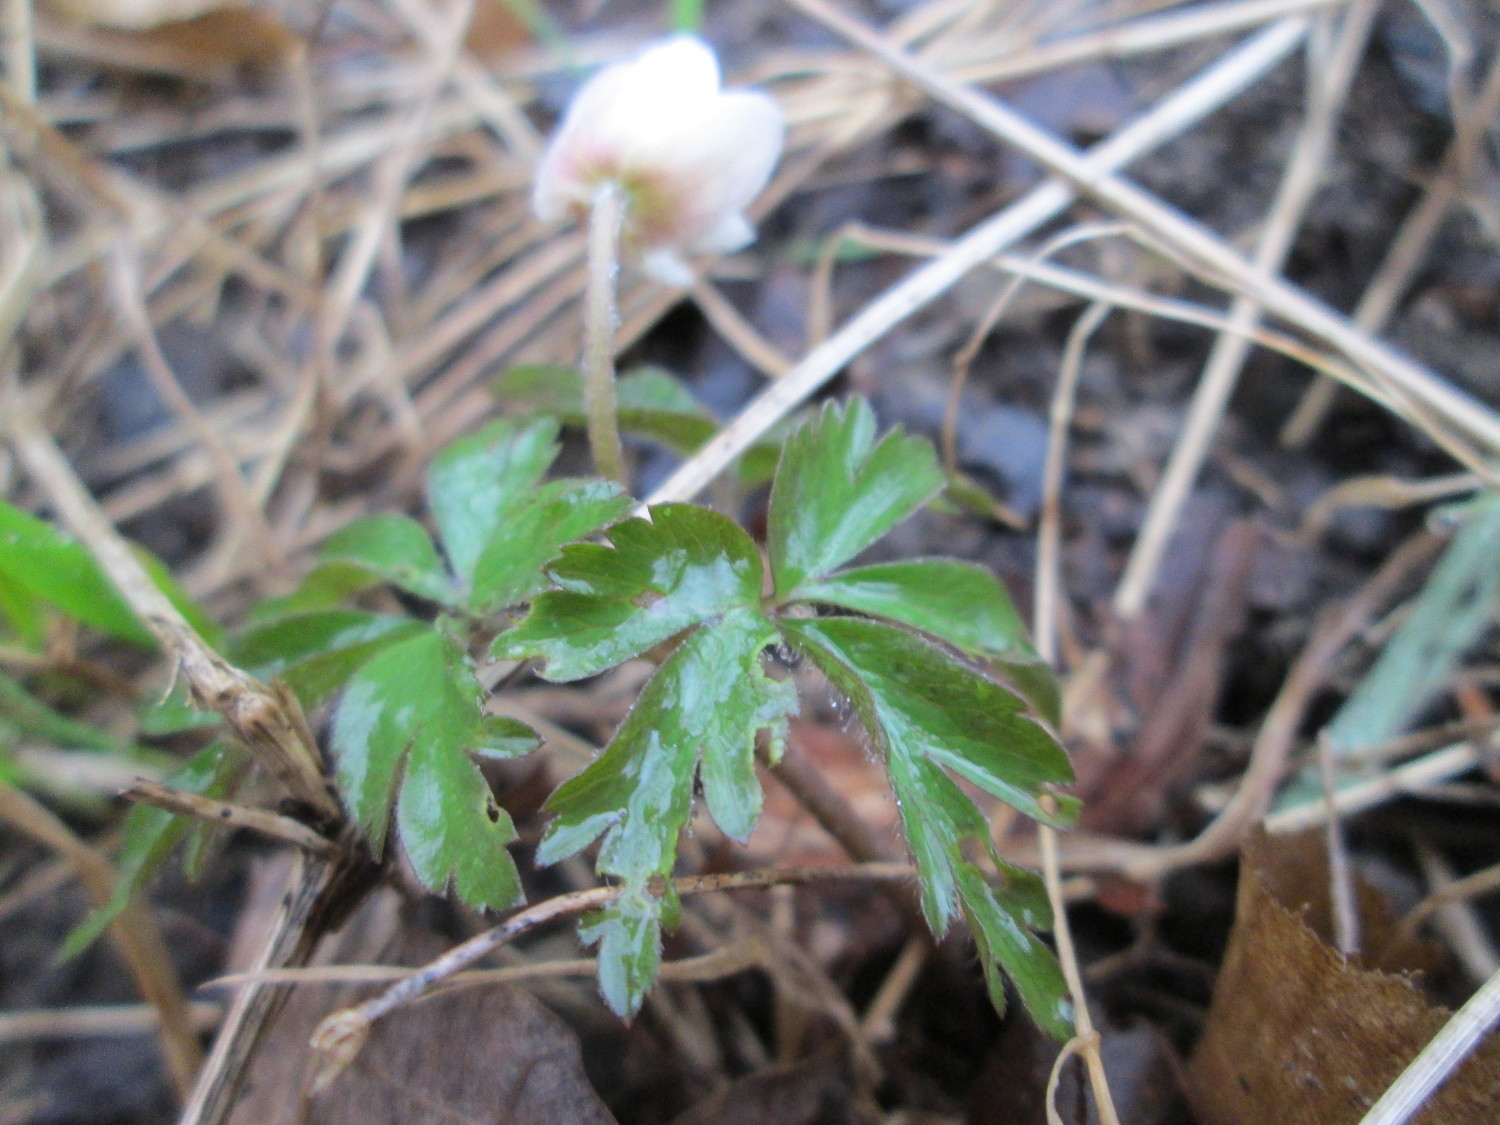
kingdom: Plantae
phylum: Tracheophyta
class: Magnoliopsida
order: Ranunculales
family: Ranunculaceae
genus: Anemone
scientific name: Anemone nemorosa
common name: Wood anemone
